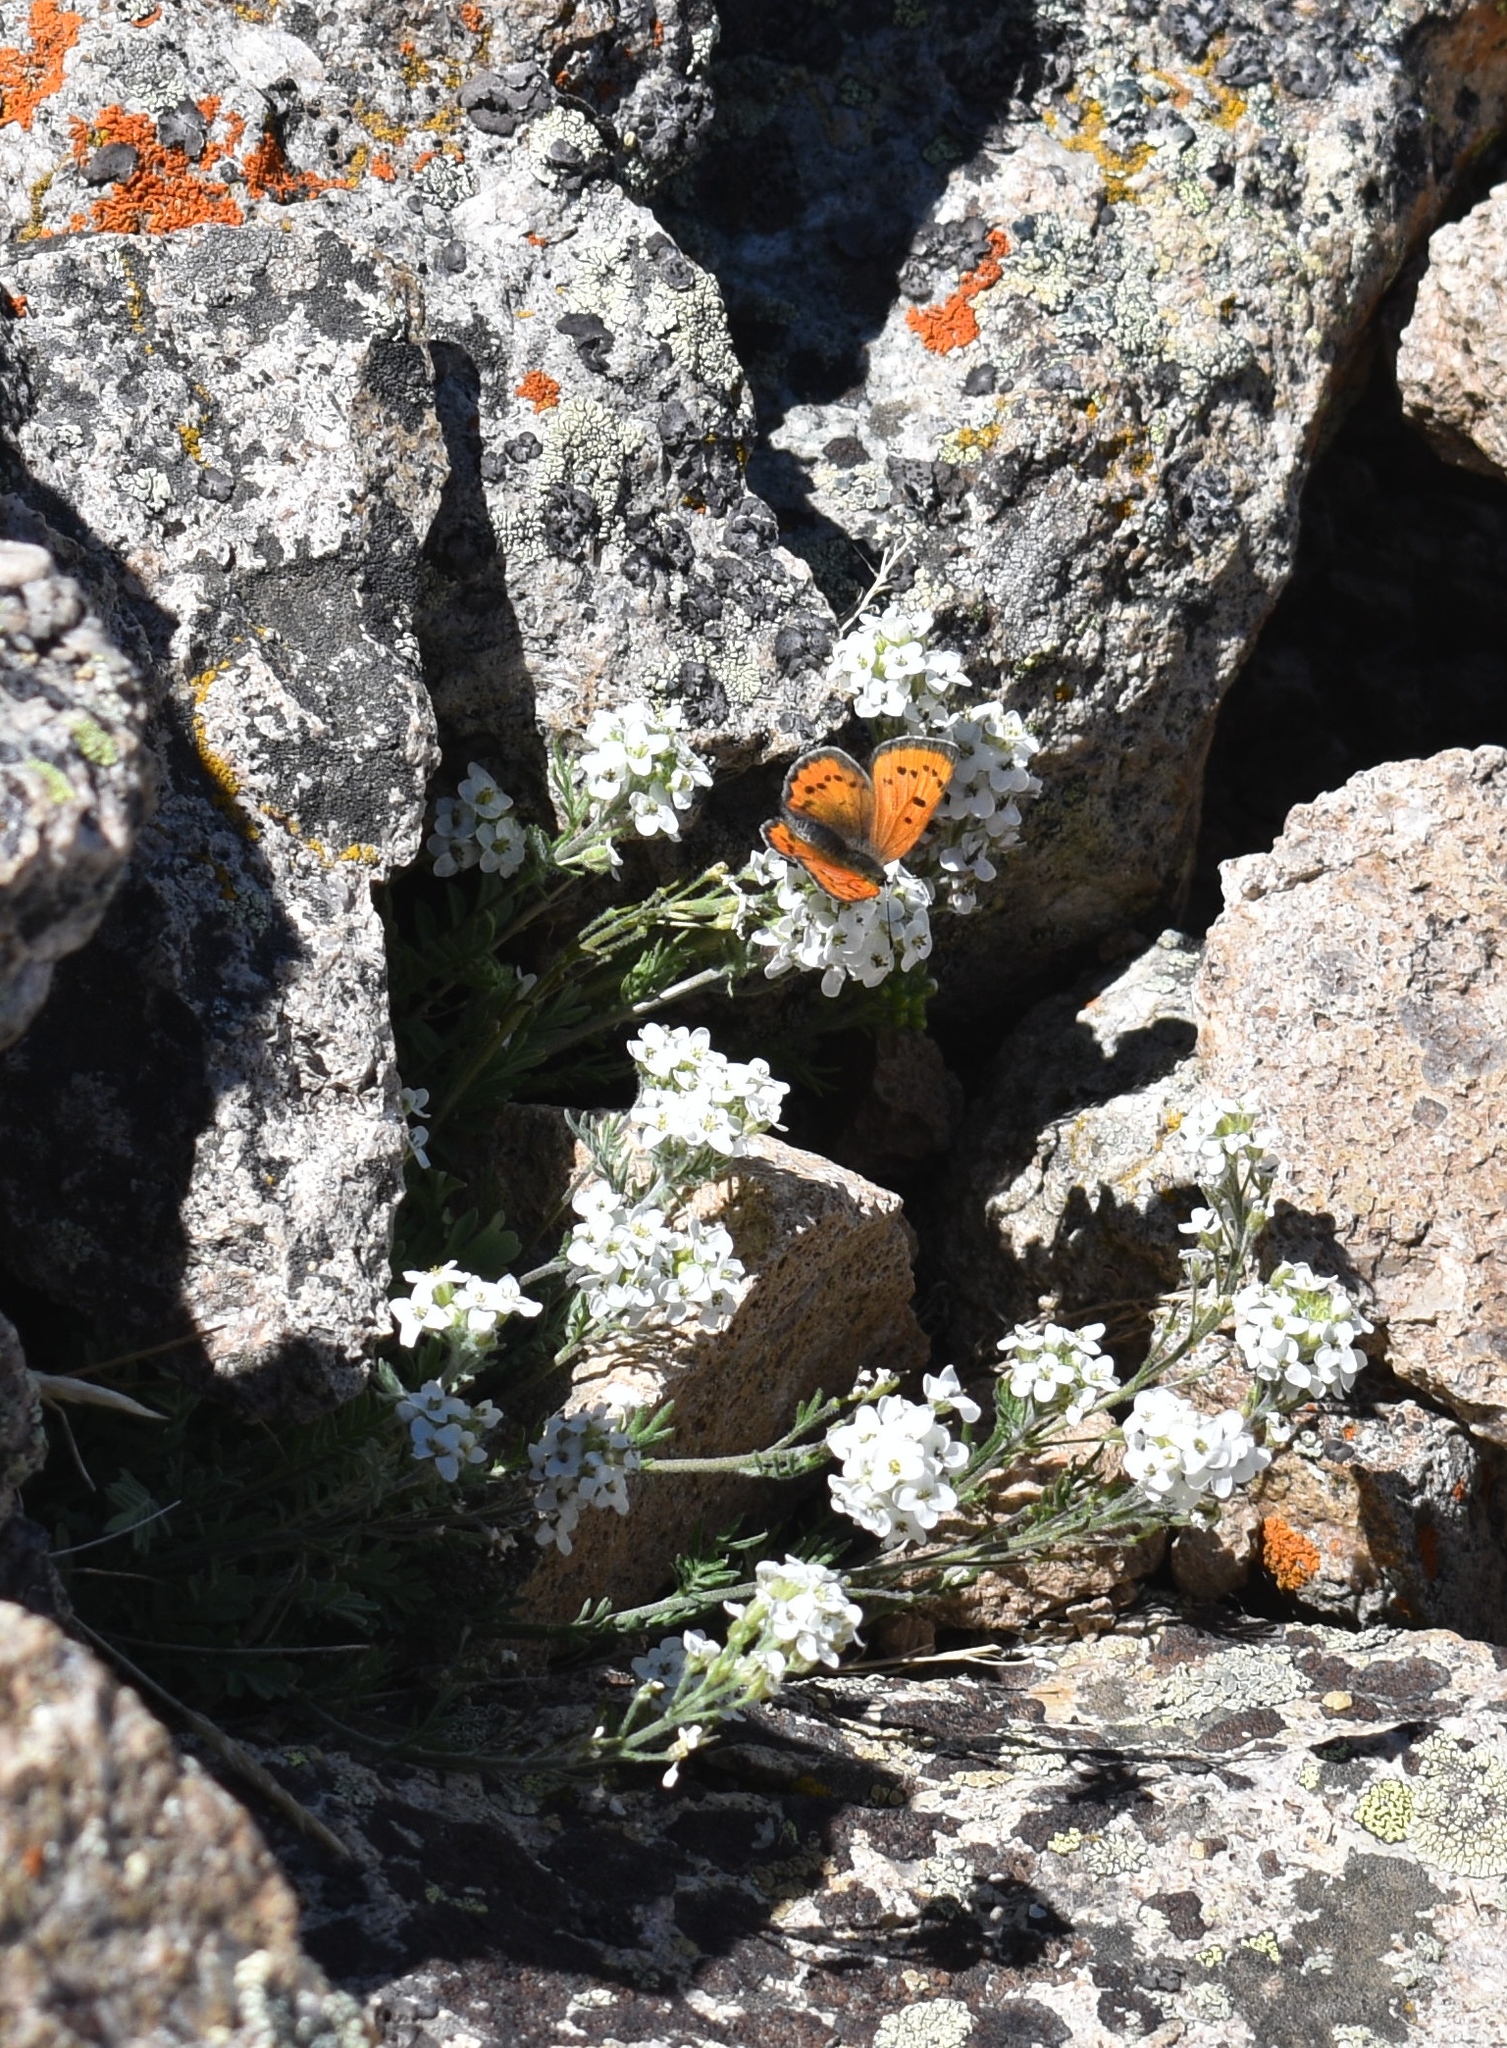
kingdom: Animalia
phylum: Arthropoda
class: Insecta
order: Lepidoptera
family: Lycaenidae
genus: Lycaena
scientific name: Lycaena cupreus
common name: Lustrous copper
